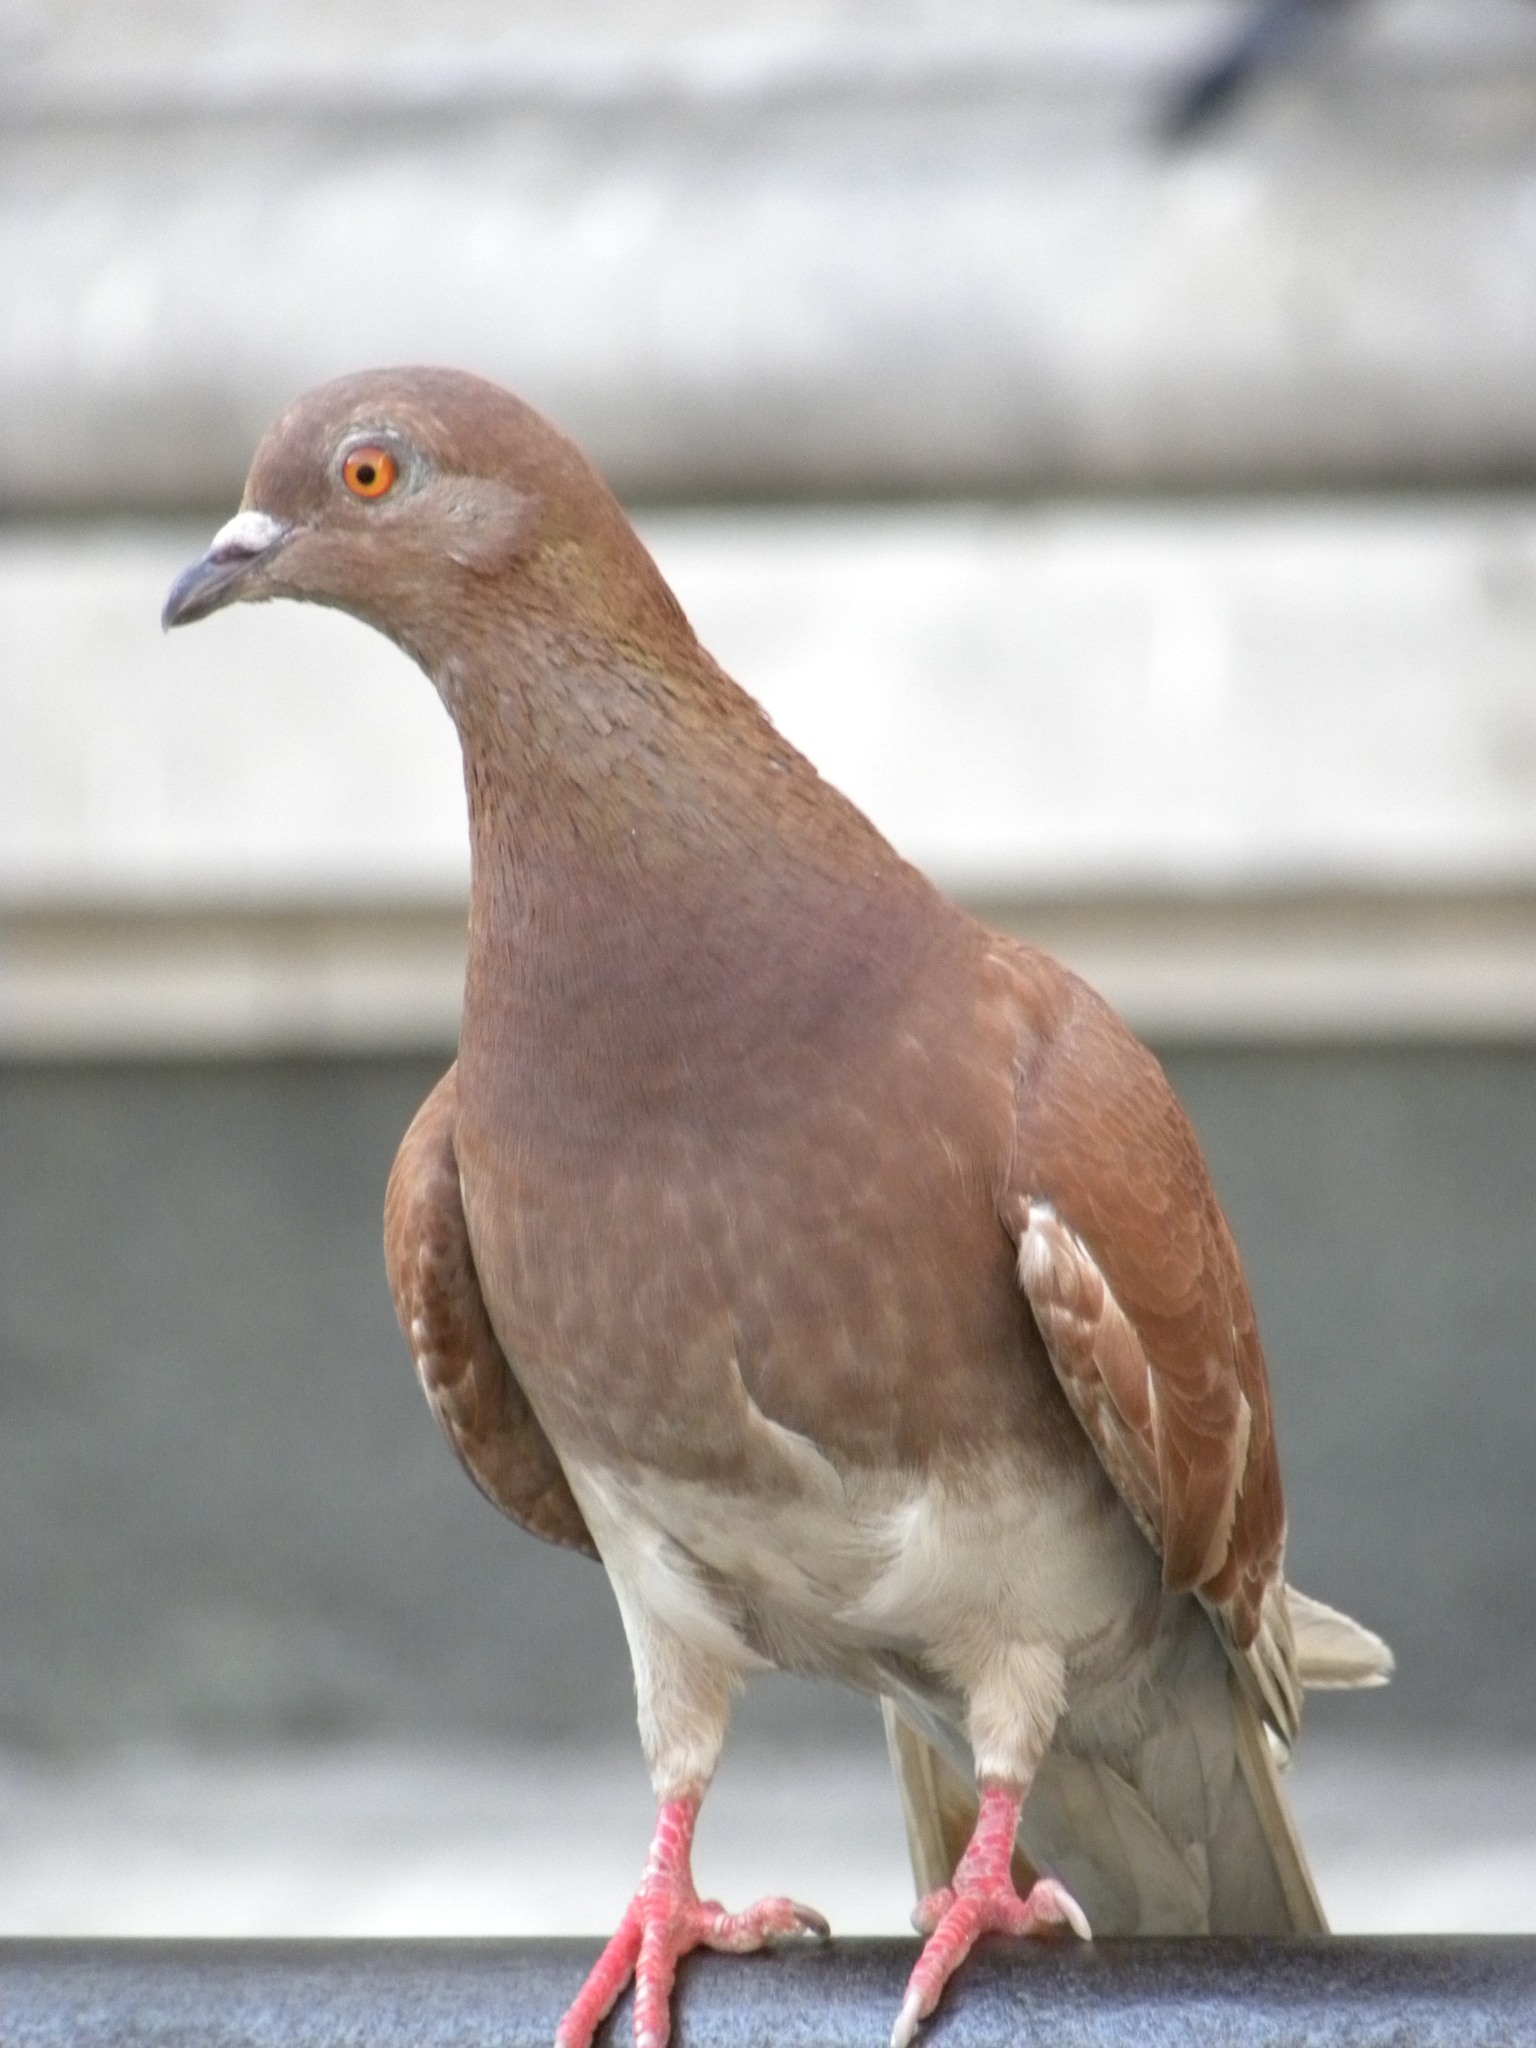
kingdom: Animalia
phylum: Chordata
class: Aves
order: Columbiformes
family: Columbidae
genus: Columba
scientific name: Columba livia
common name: Rock pigeon
